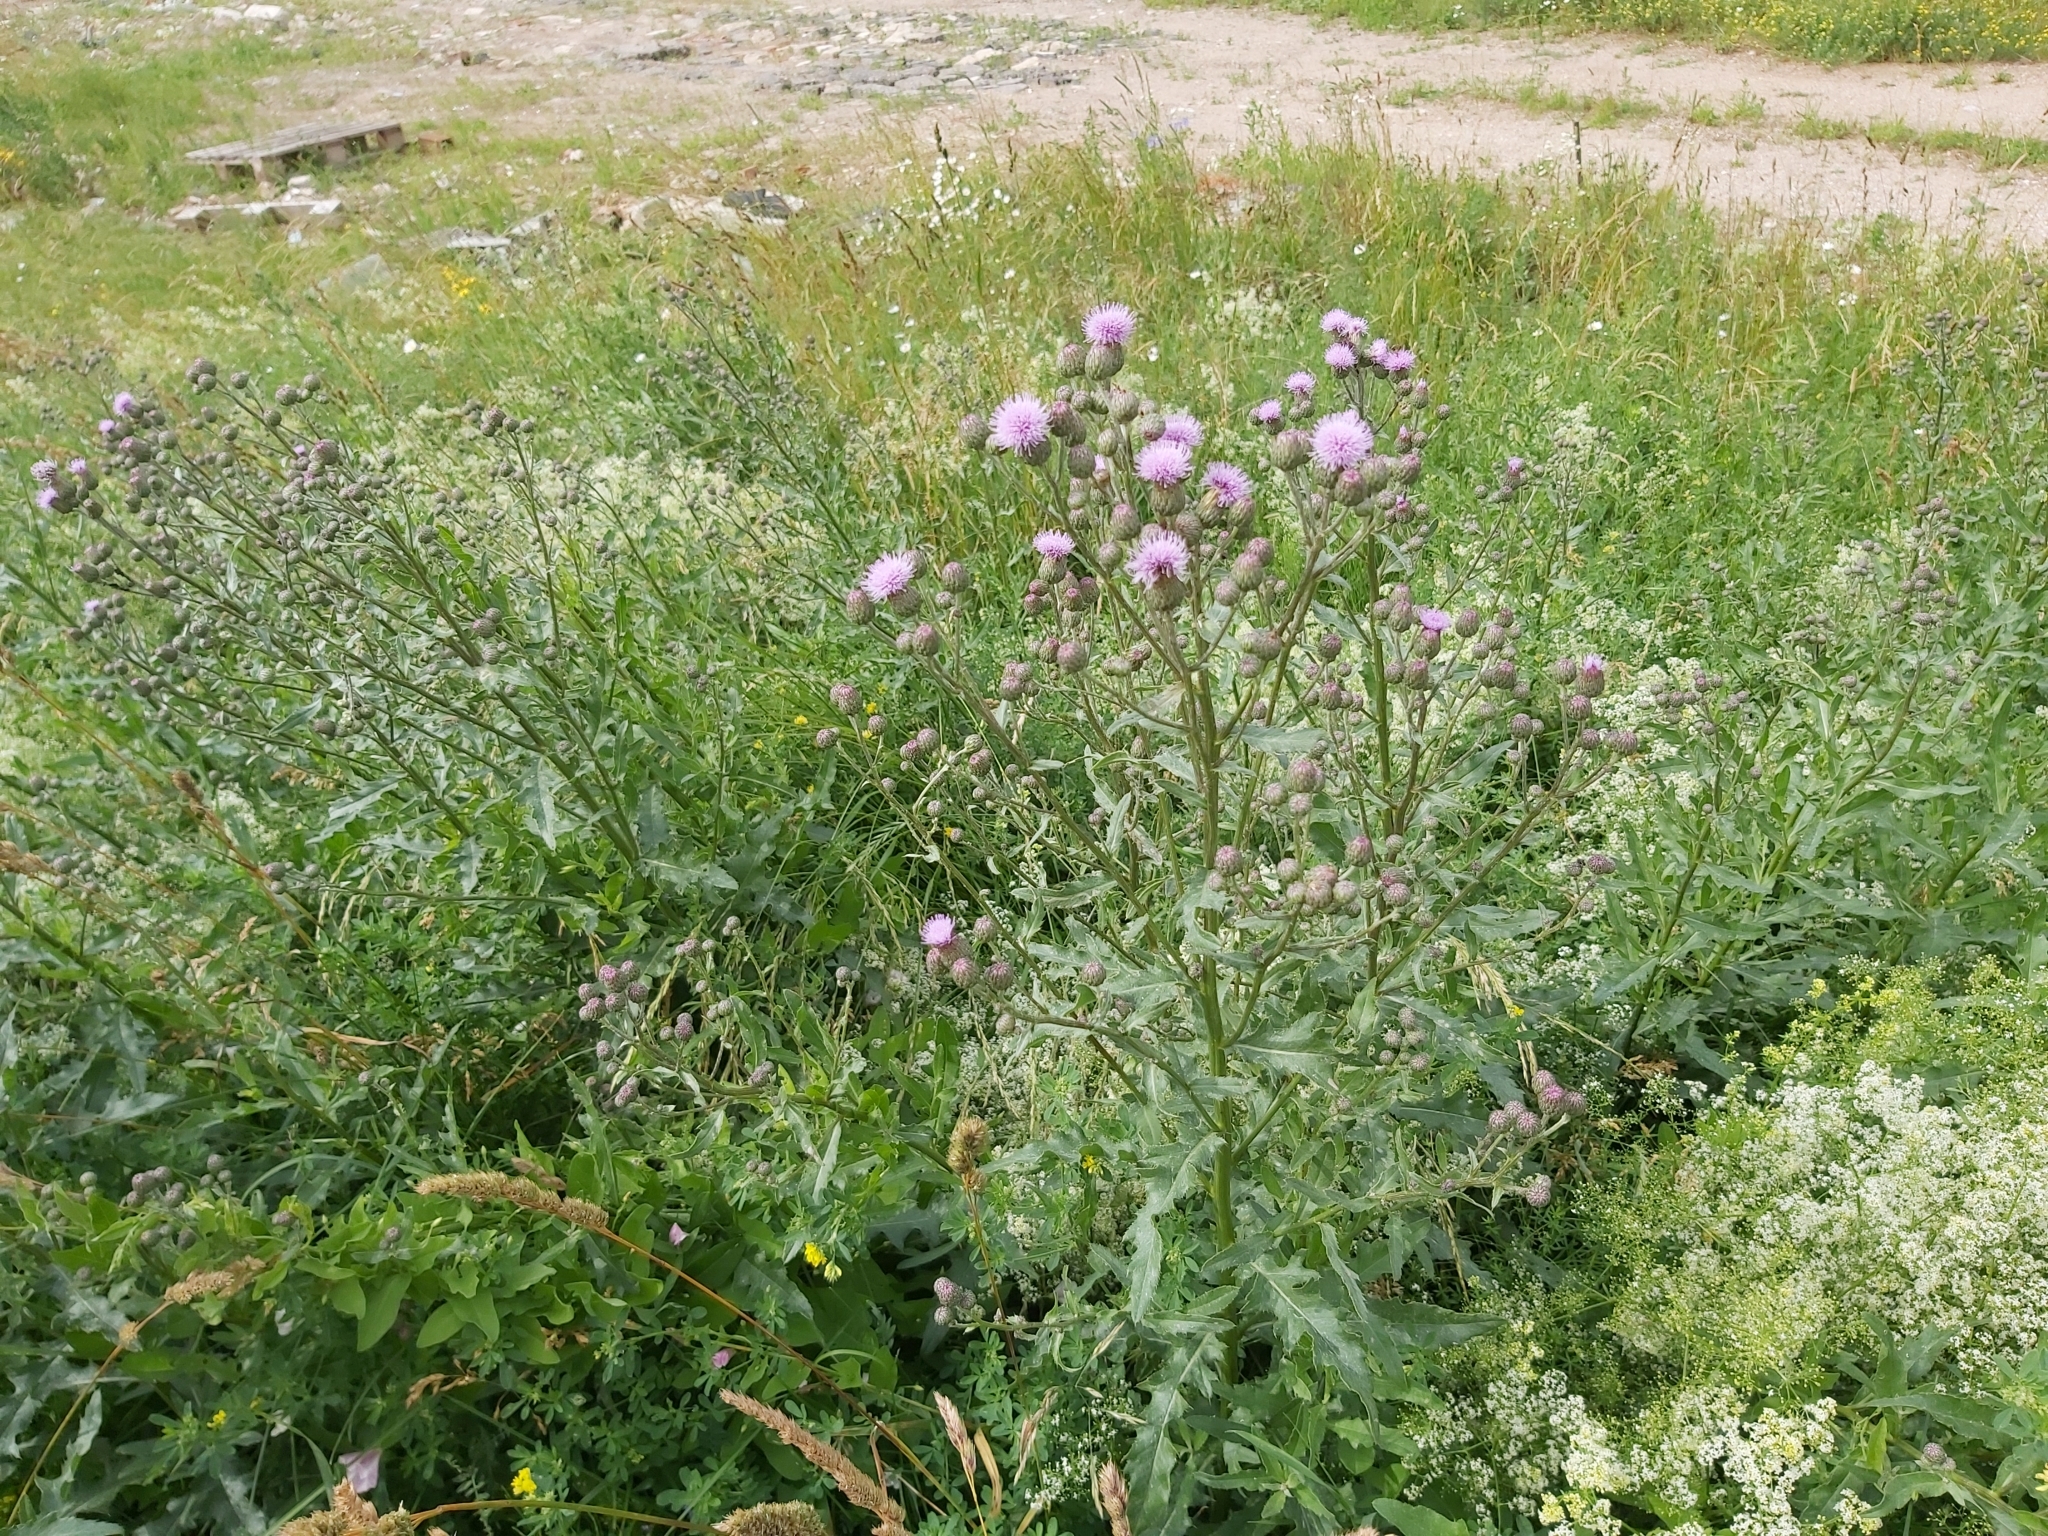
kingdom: Plantae
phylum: Tracheophyta
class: Magnoliopsida
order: Asterales
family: Asteraceae
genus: Cirsium
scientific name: Cirsium arvense
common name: Creeping thistle
